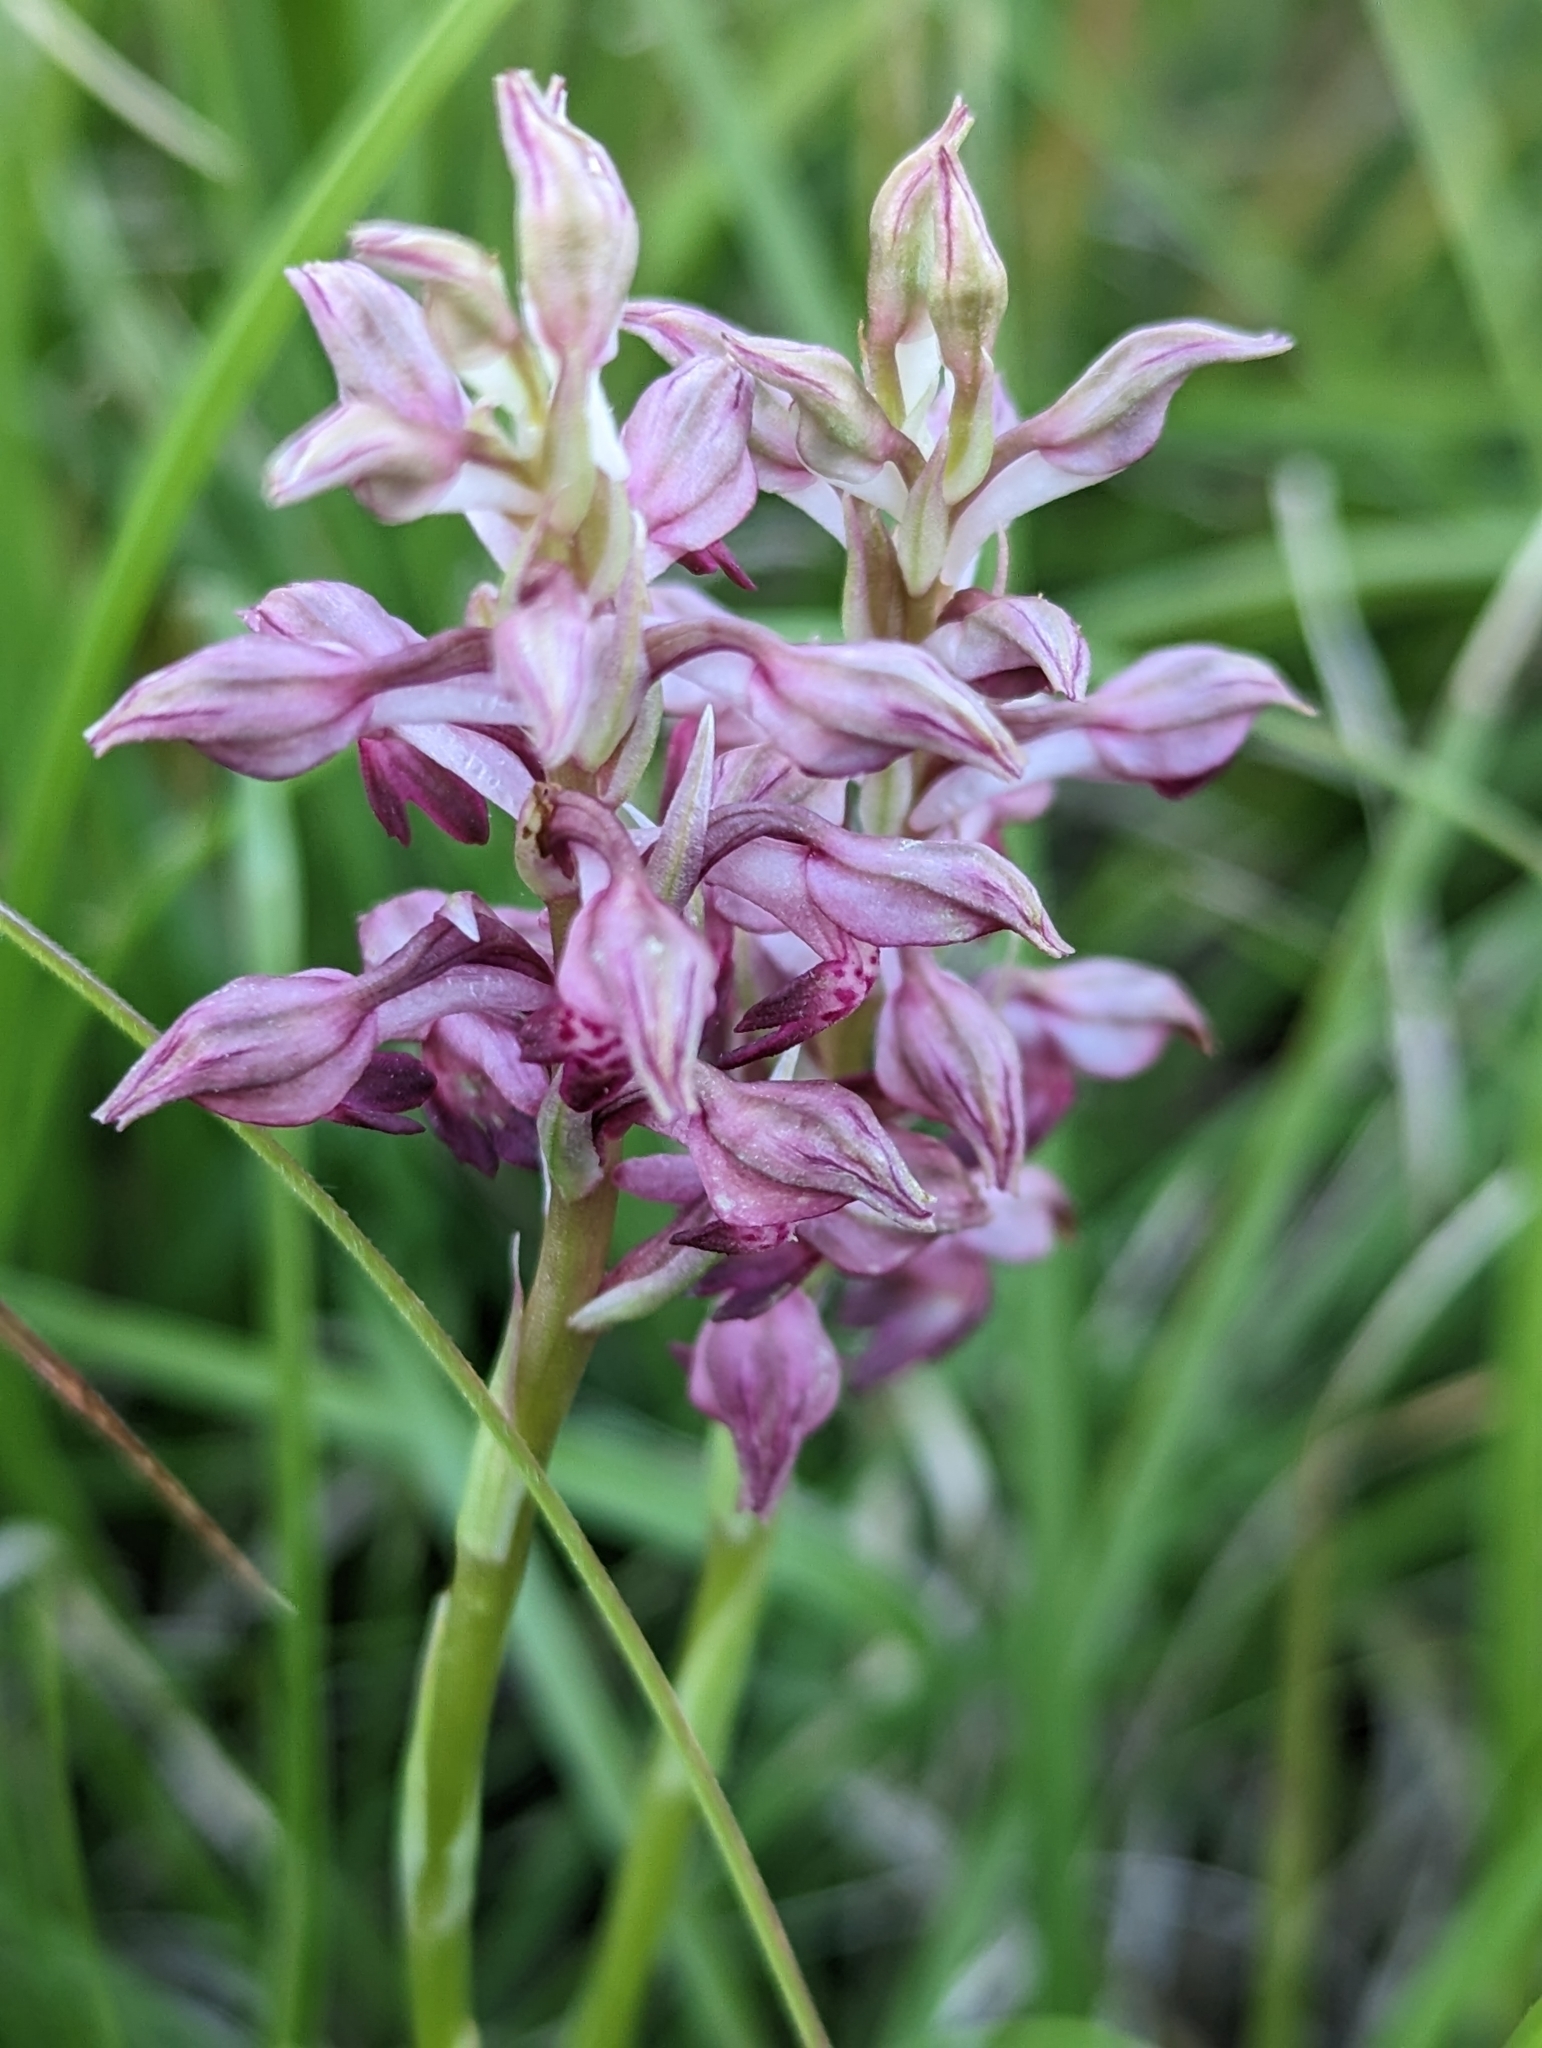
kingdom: Plantae
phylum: Tracheophyta
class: Liliopsida
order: Asparagales
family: Orchidaceae
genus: Anacamptis
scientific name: Anacamptis coriophora
